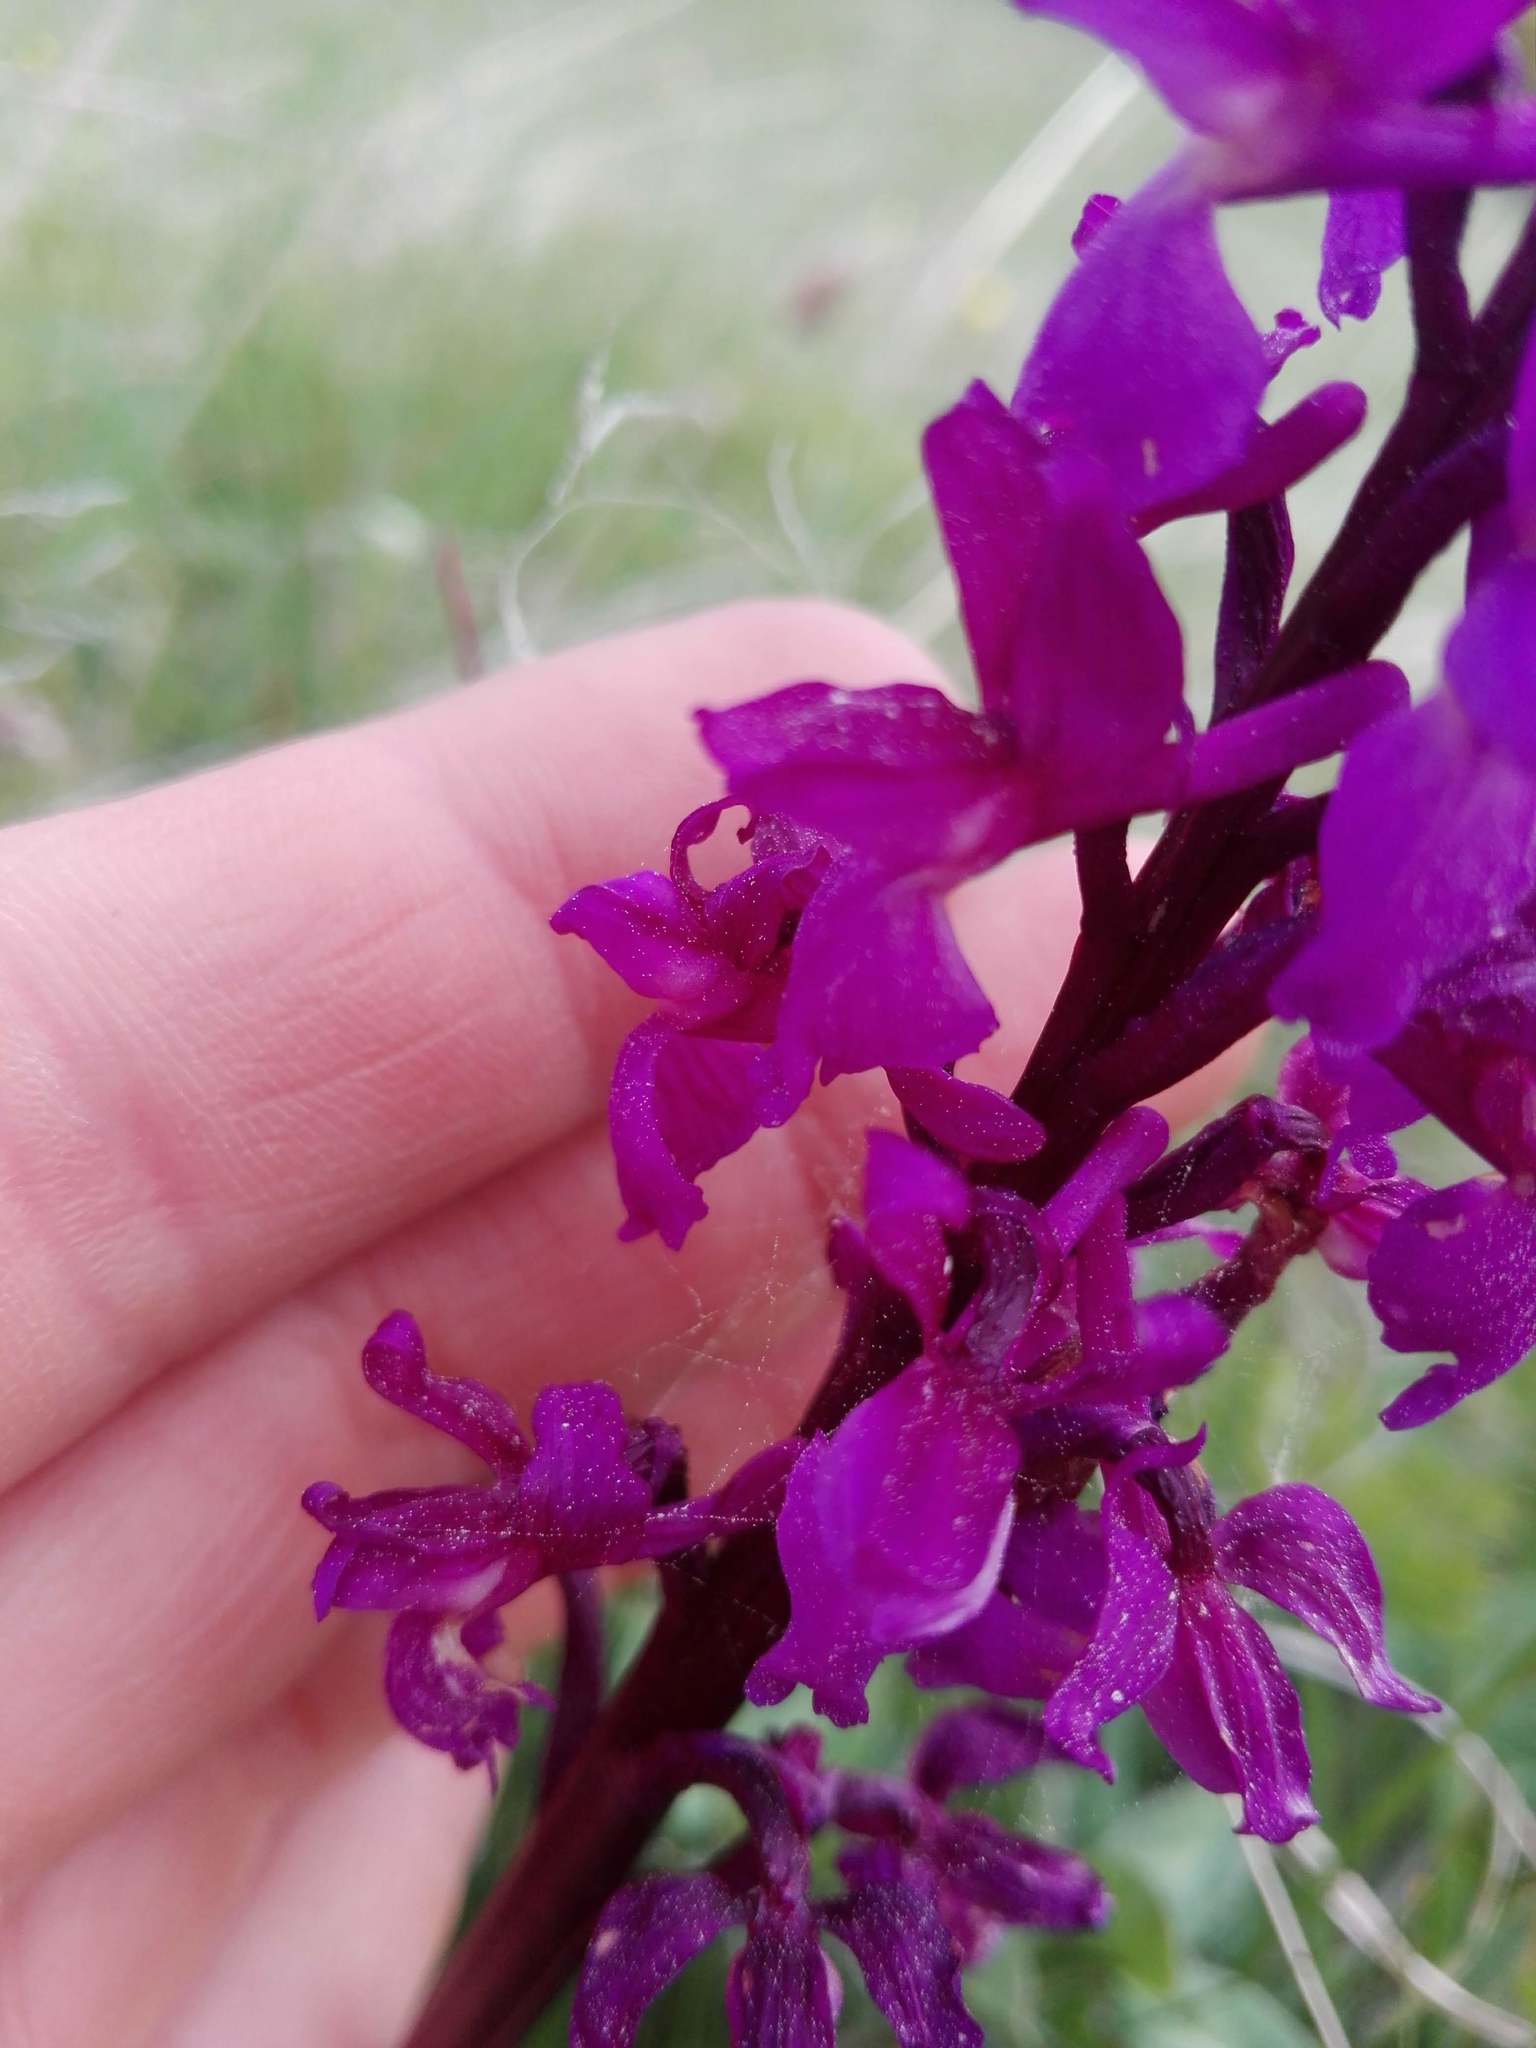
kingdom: Plantae
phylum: Tracheophyta
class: Liliopsida
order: Asparagales
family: Orchidaceae
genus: Orchis
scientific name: Orchis mascula
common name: Early-purple orchid
